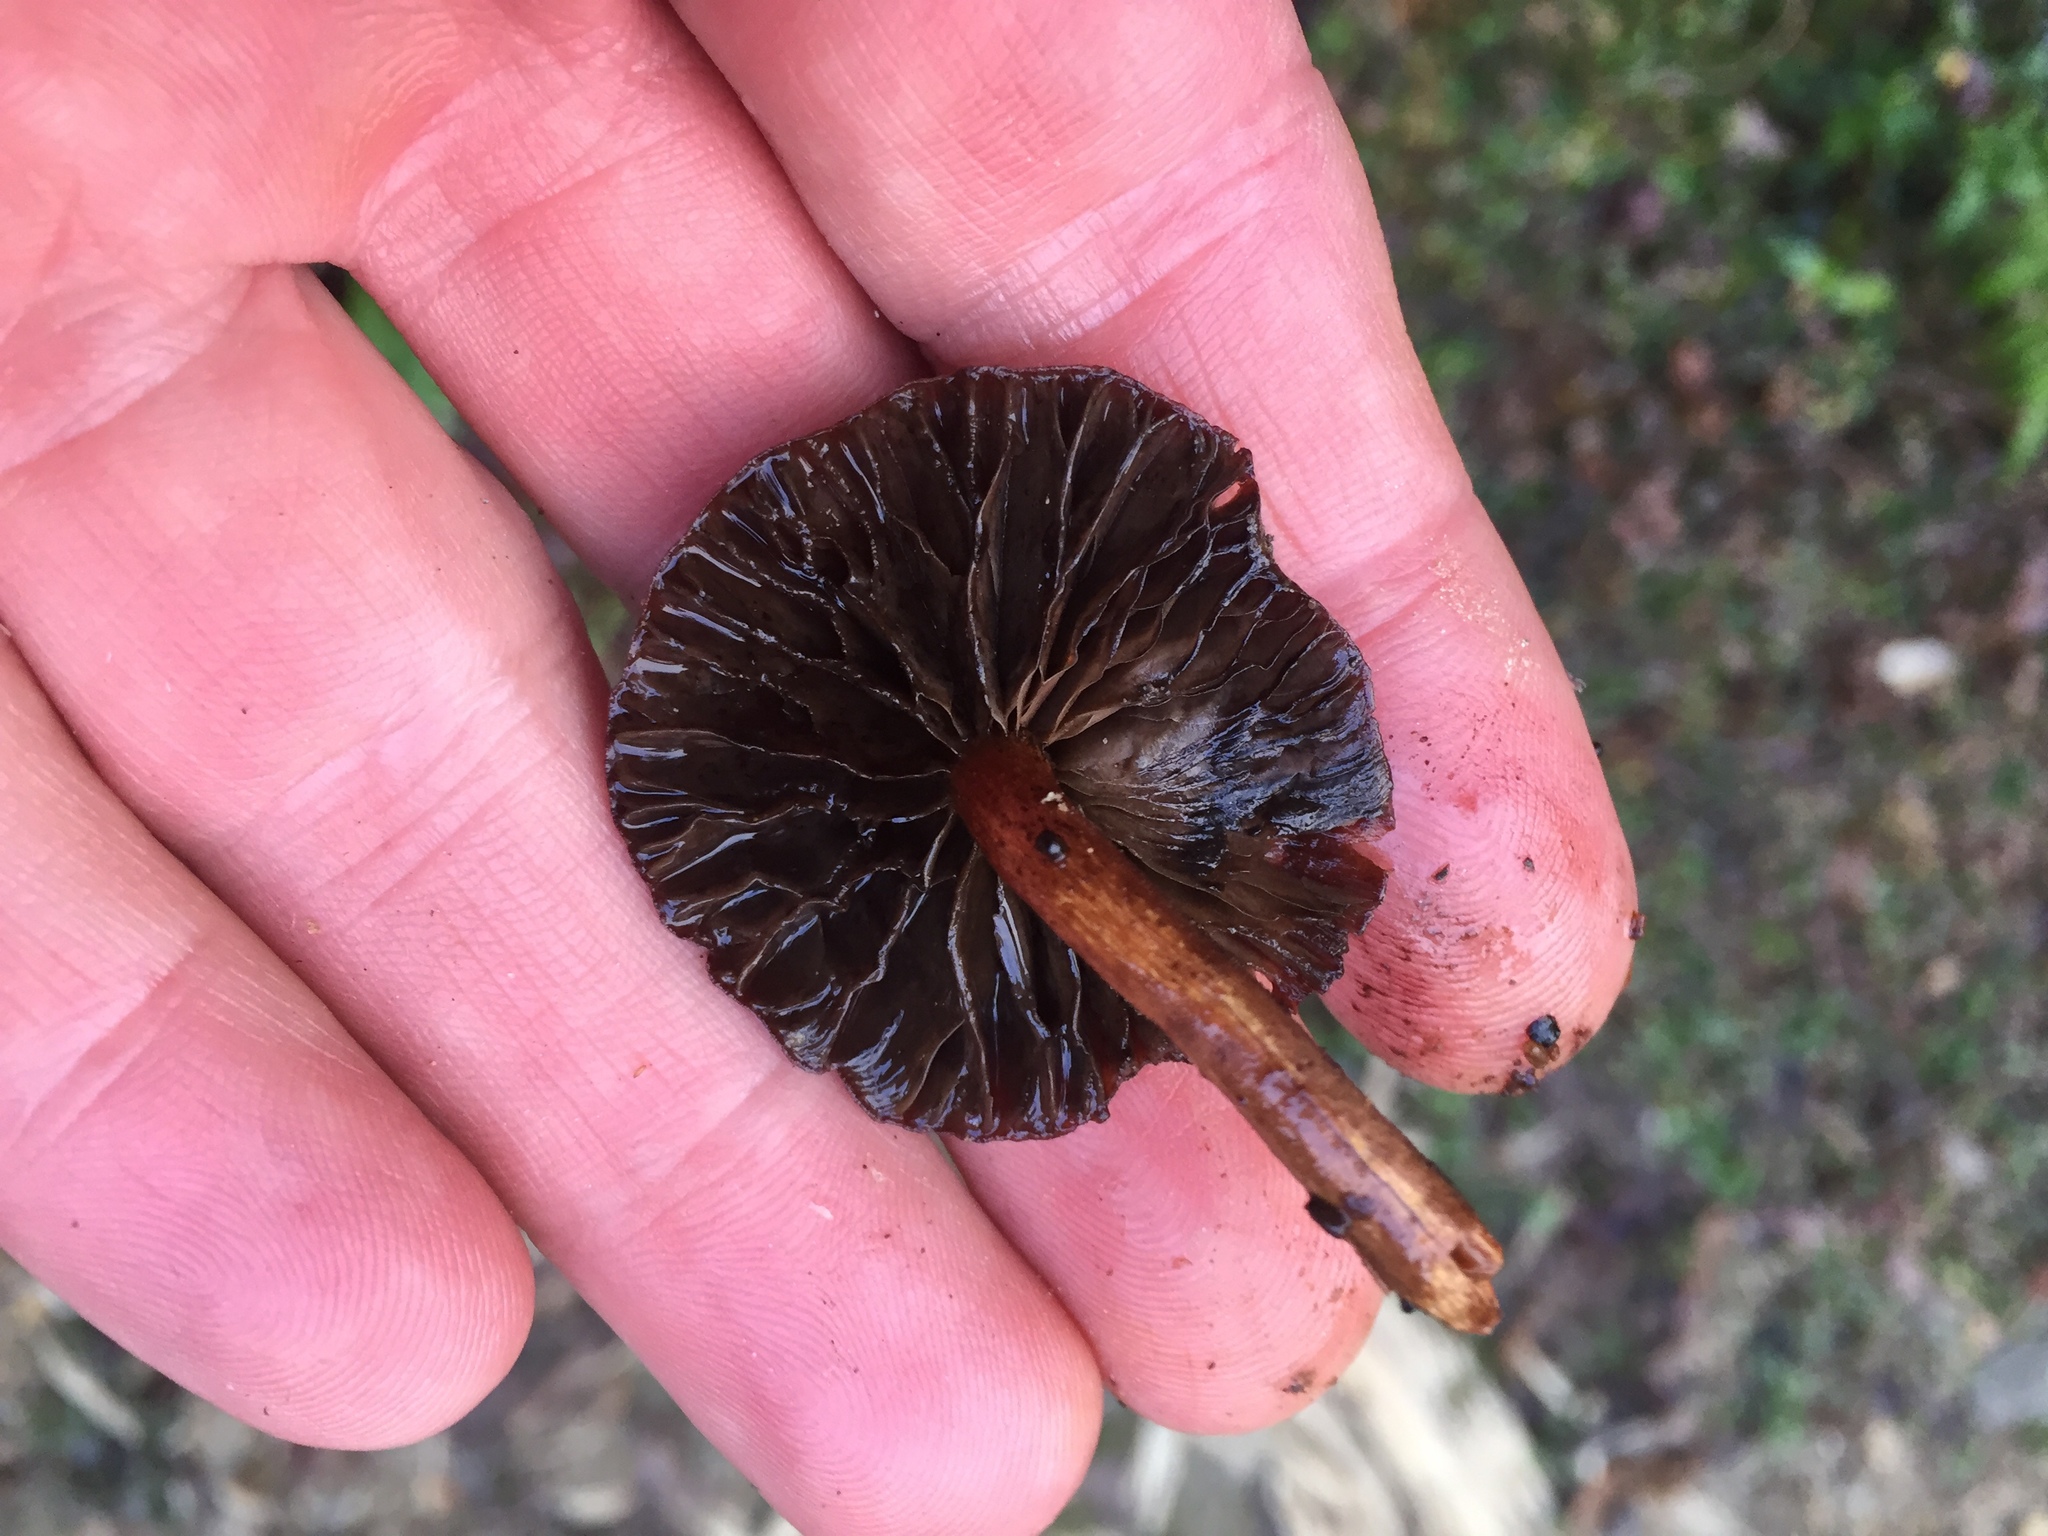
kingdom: Fungi
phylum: Basidiomycota
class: Agaricomycetes
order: Agaricales
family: Strophariaceae
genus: Hypholoma
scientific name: Hypholoma brunneum
